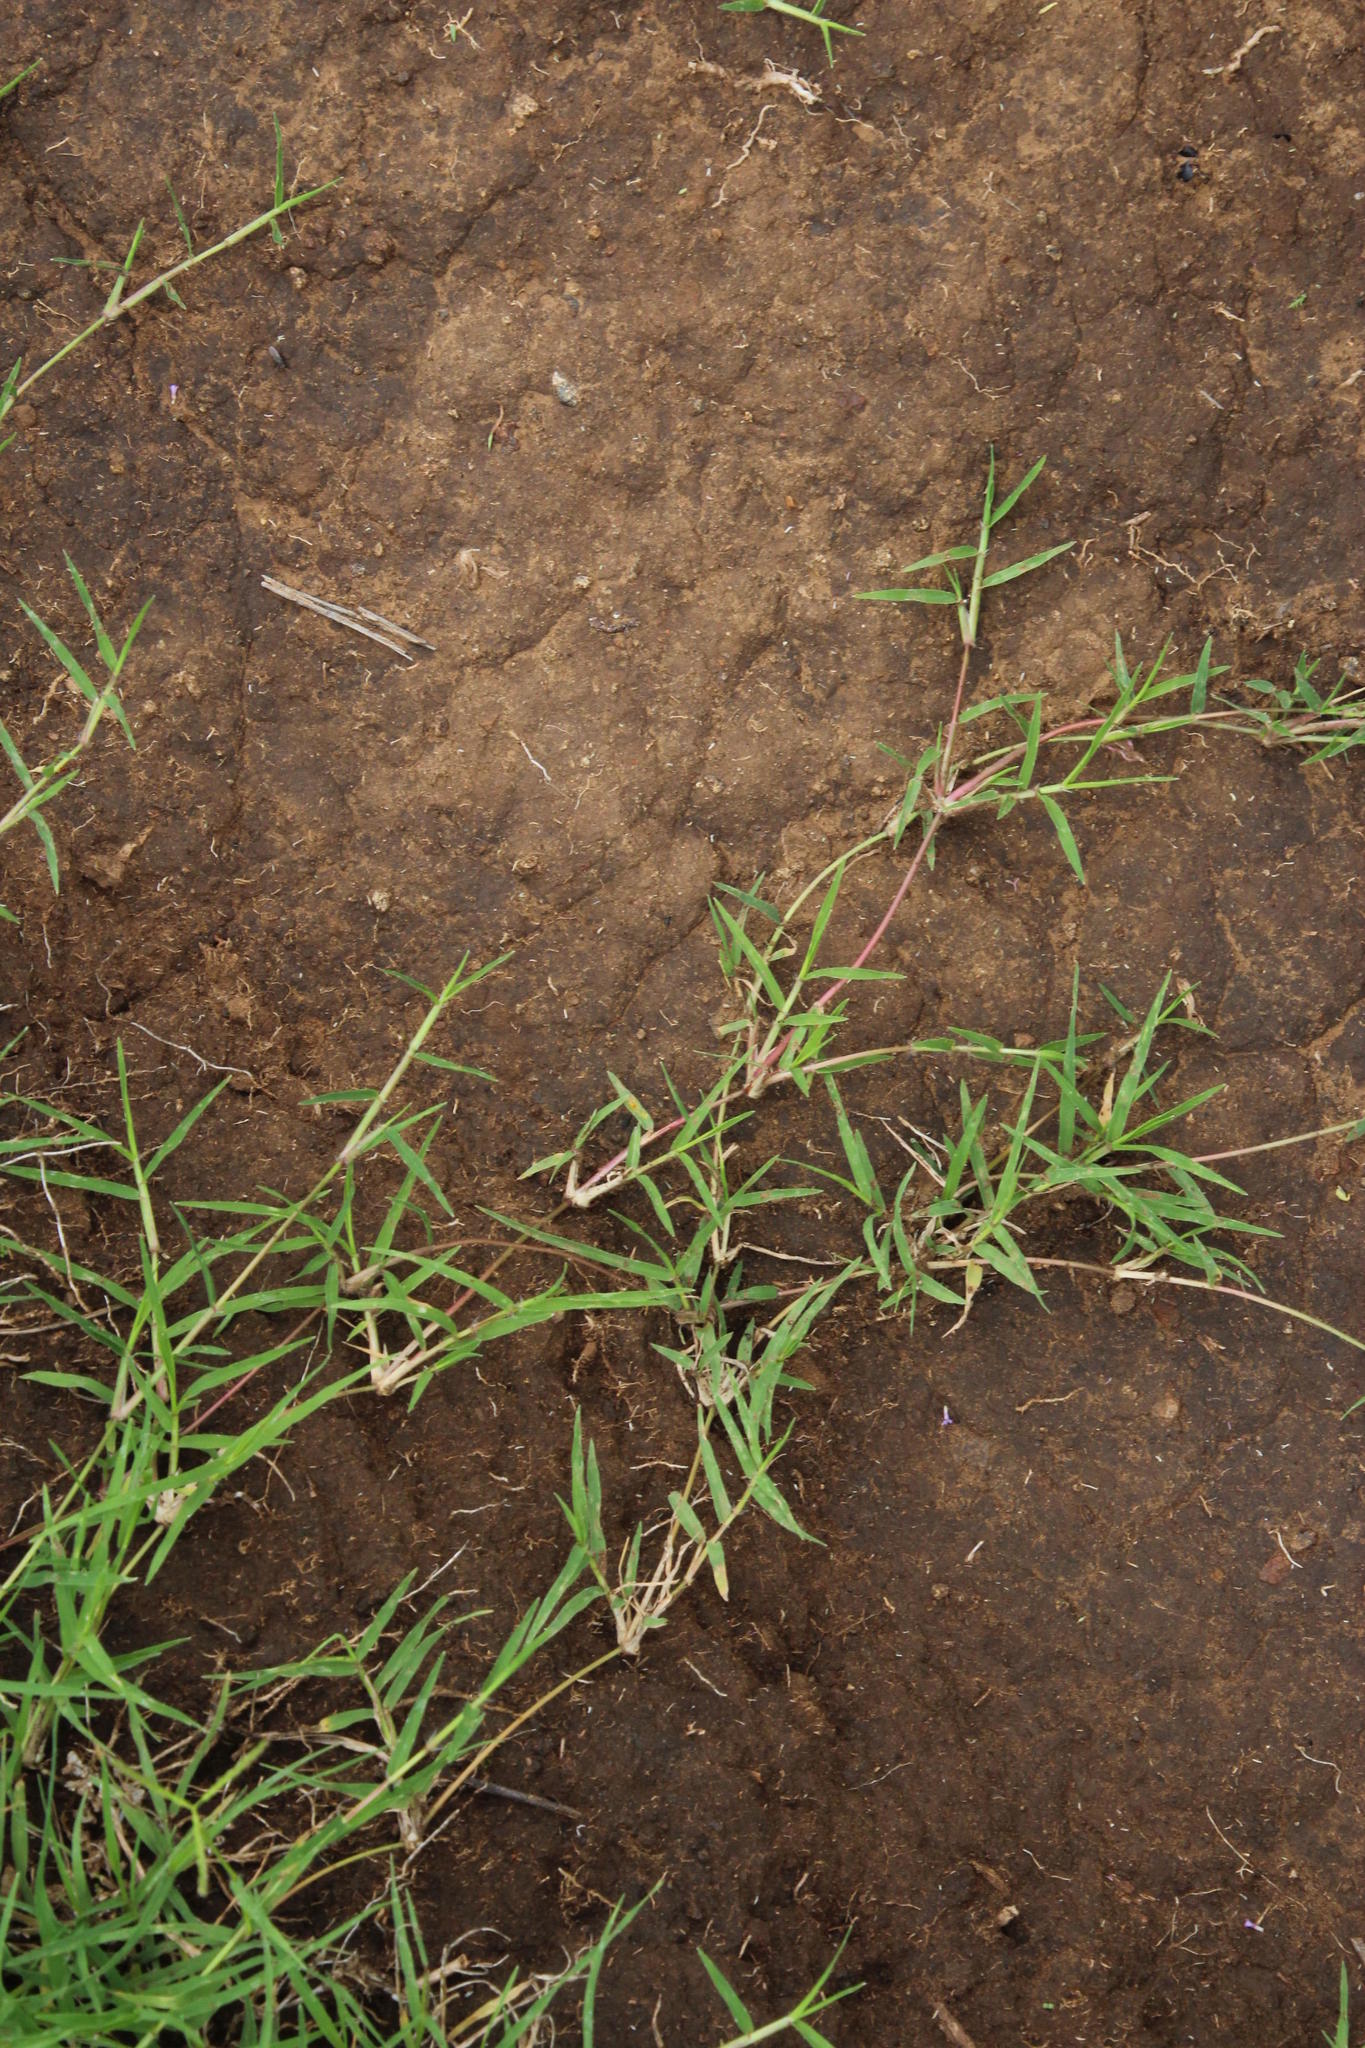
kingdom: Plantae
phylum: Tracheophyta
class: Liliopsida
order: Poales
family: Poaceae
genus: Cynodon
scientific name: Cynodon dactylon
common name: Bermuda grass
